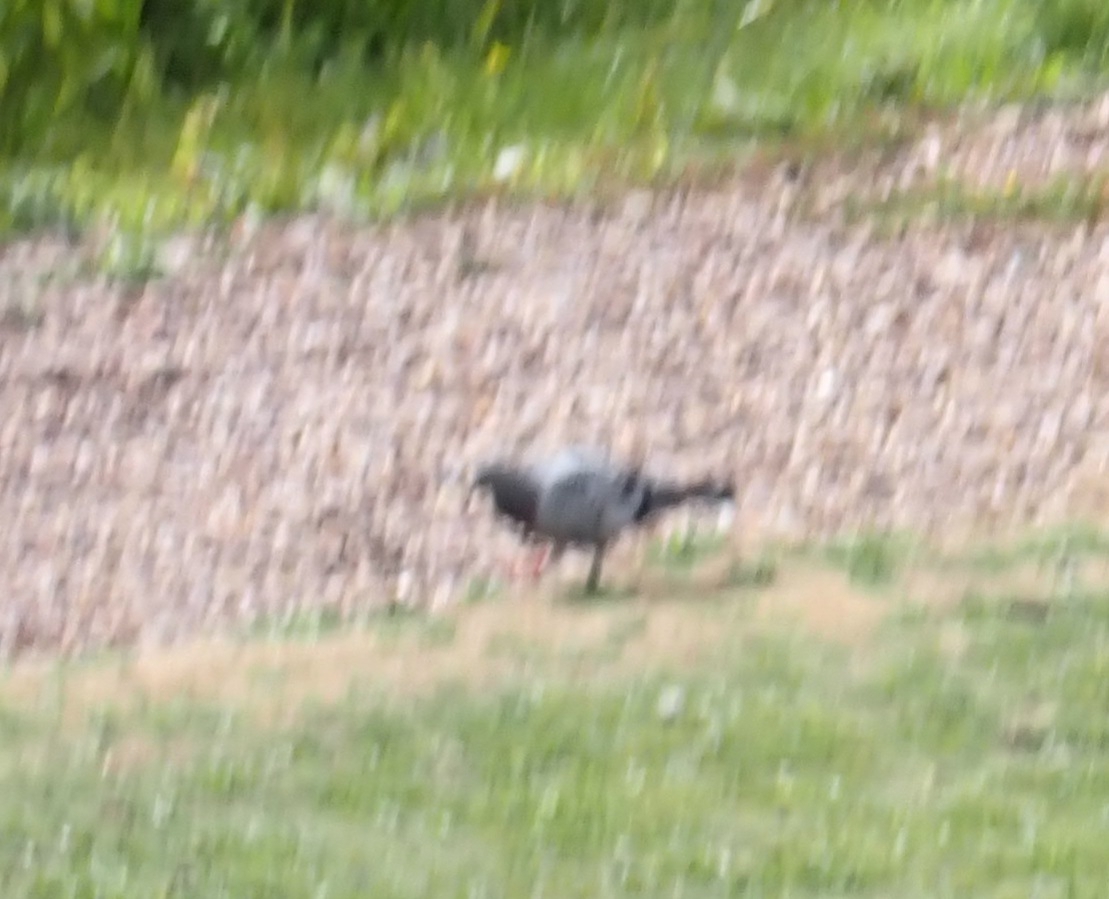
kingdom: Animalia
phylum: Chordata
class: Aves
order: Columbiformes
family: Columbidae
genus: Columba
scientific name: Columba livia
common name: Rock pigeon
